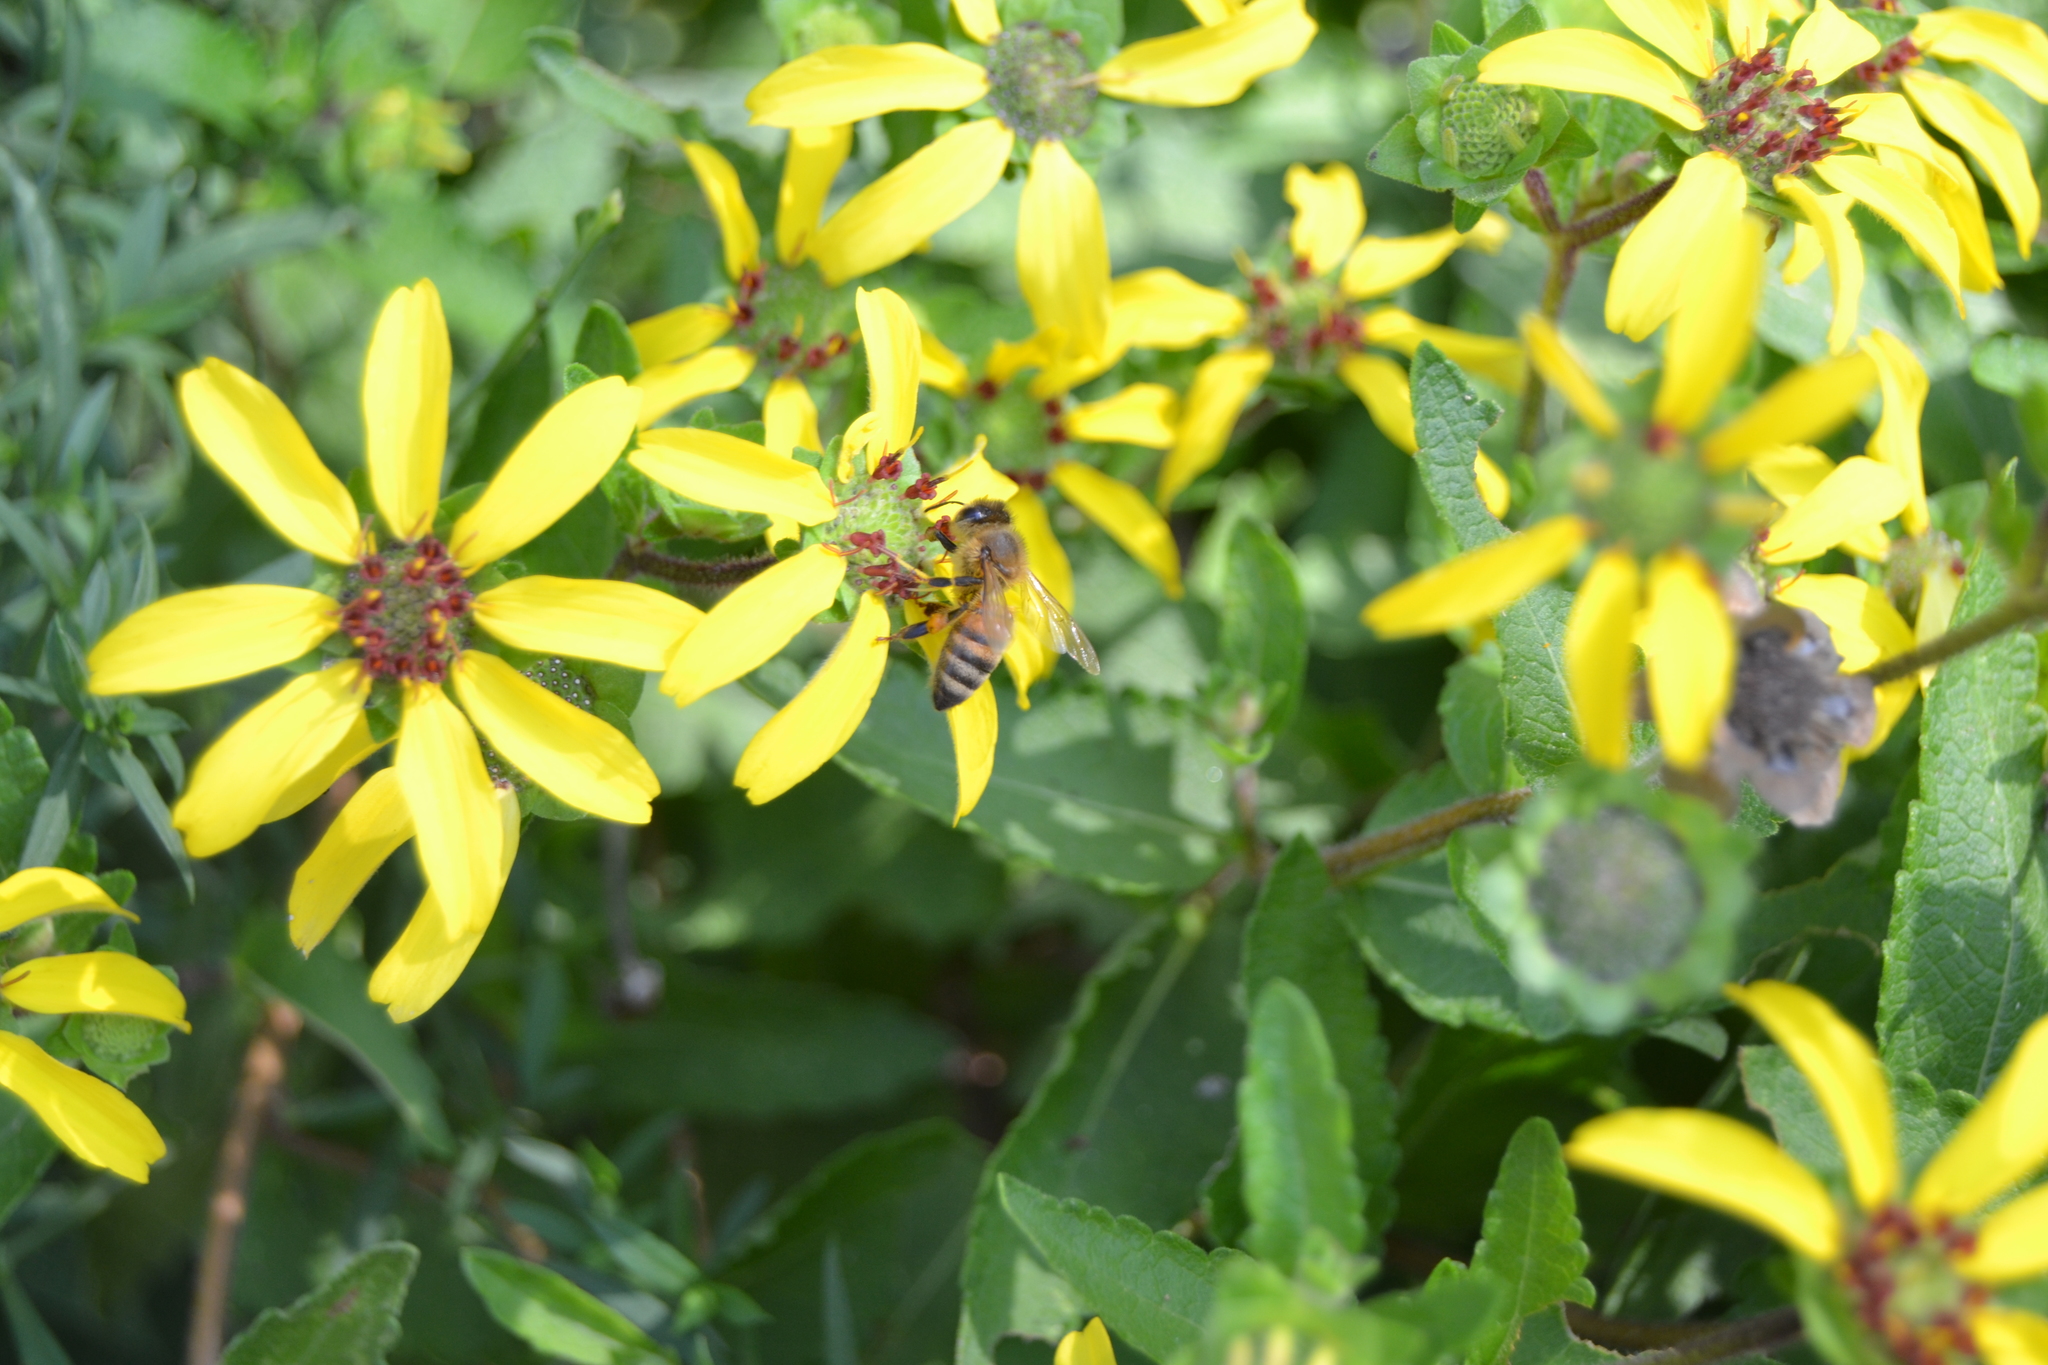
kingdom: Animalia
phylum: Arthropoda
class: Insecta
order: Hymenoptera
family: Apidae
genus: Apis
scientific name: Apis mellifera
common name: Honey bee
